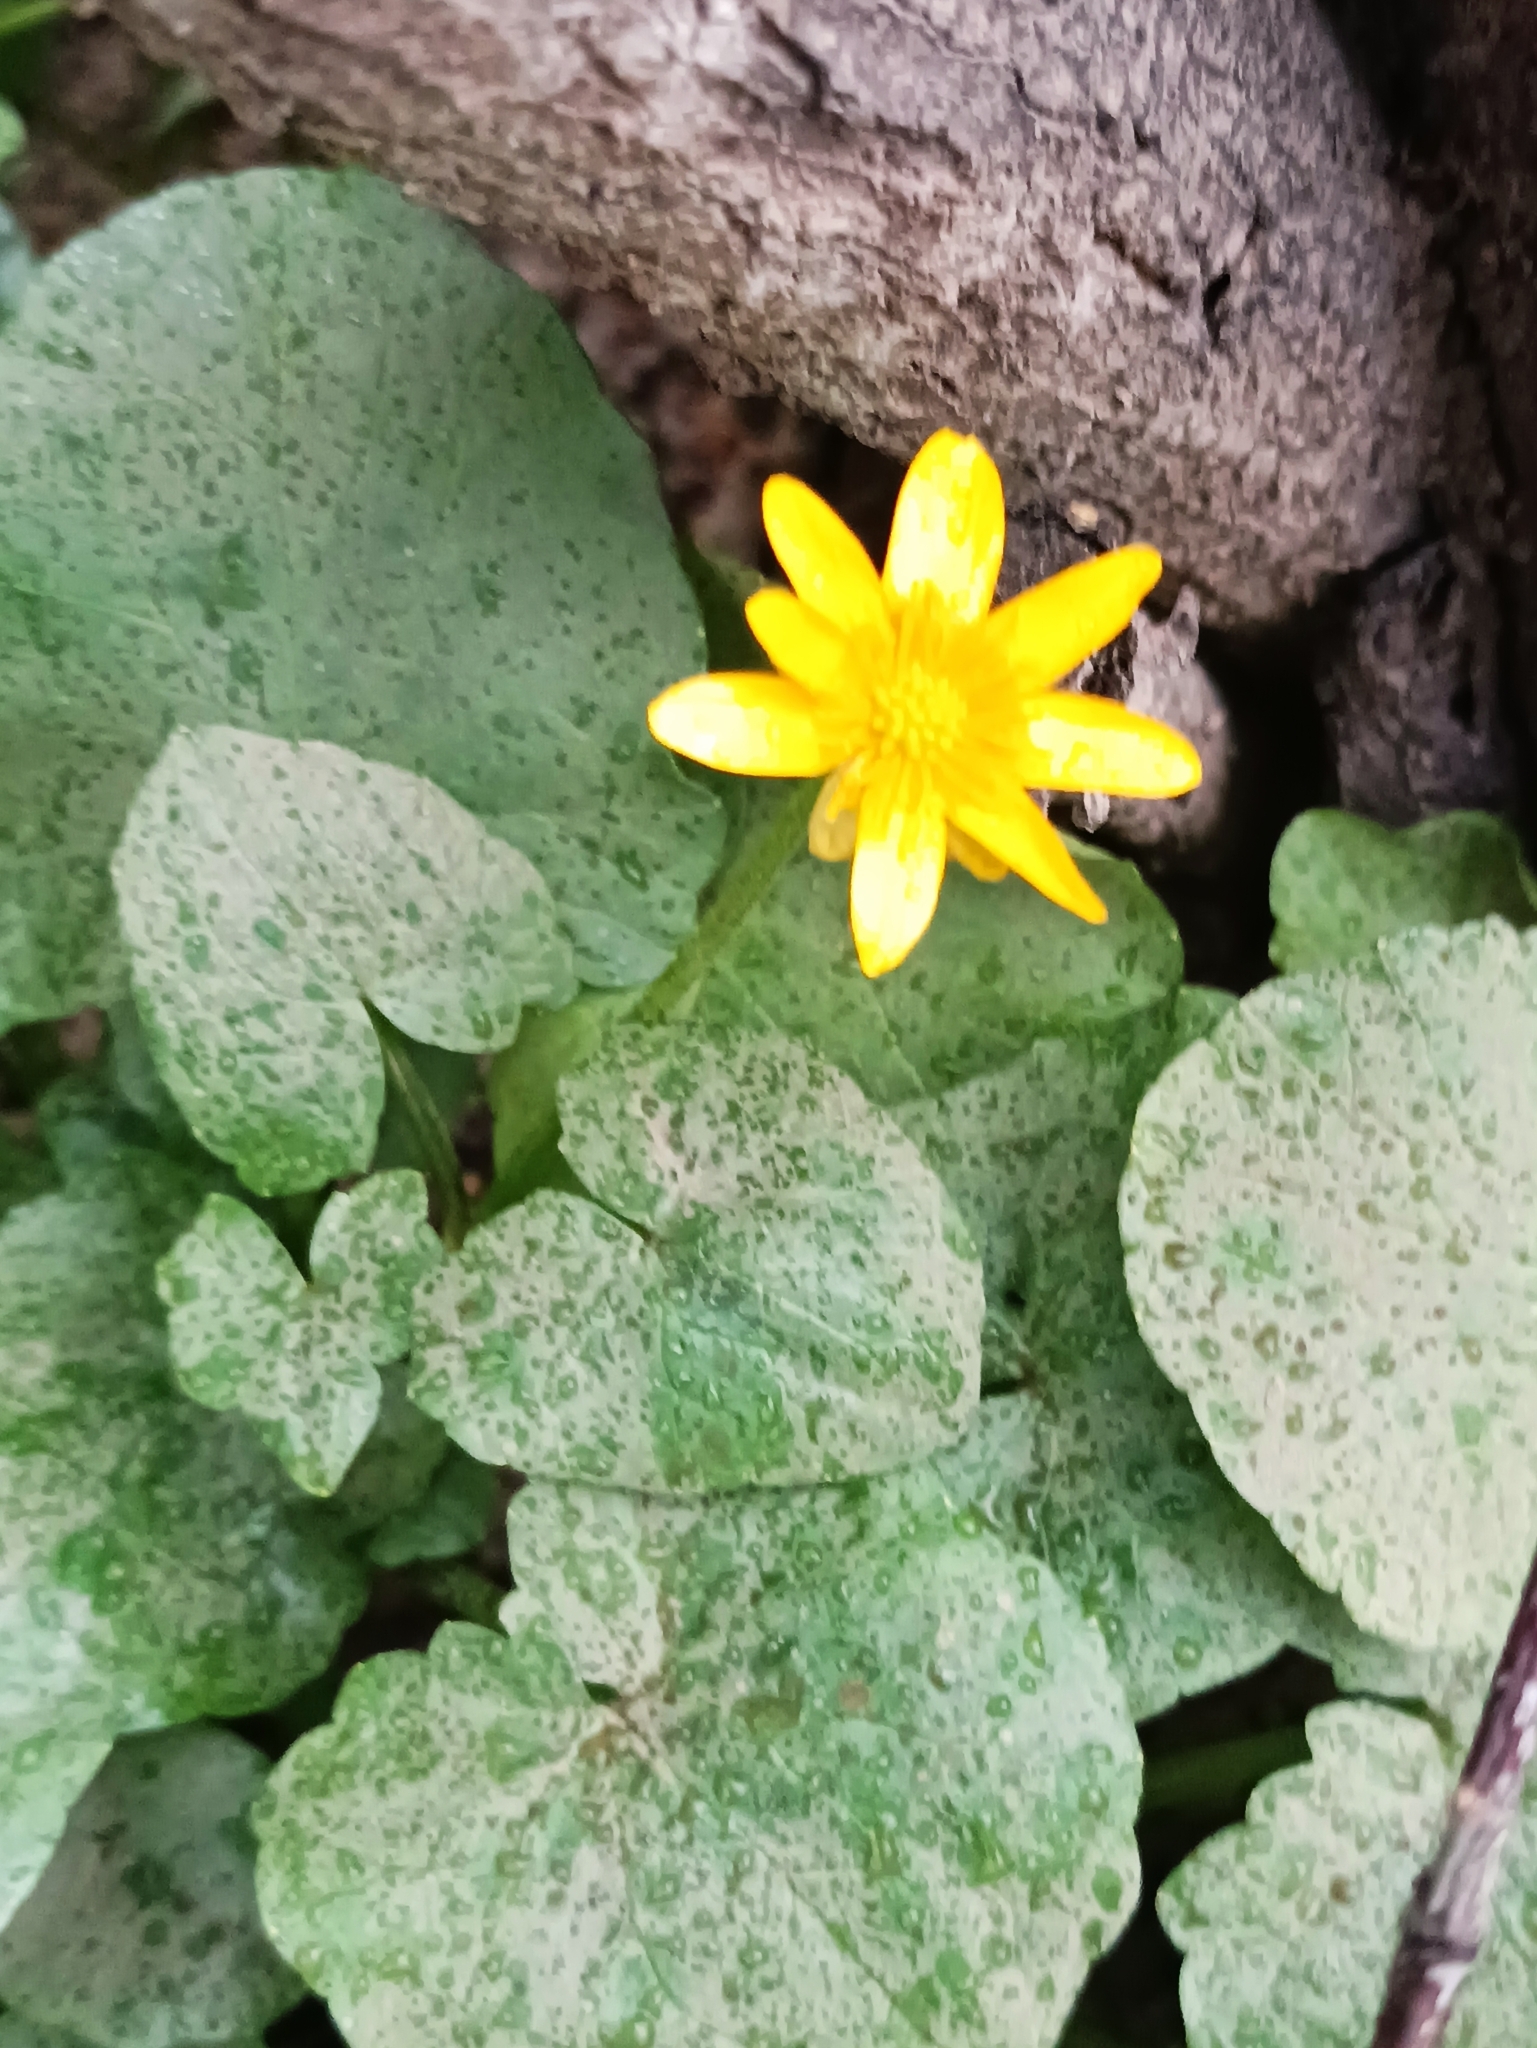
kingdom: Plantae
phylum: Tracheophyta
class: Magnoliopsida
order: Ranunculales
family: Ranunculaceae
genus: Ficaria
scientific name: Ficaria verna
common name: Lesser celandine
